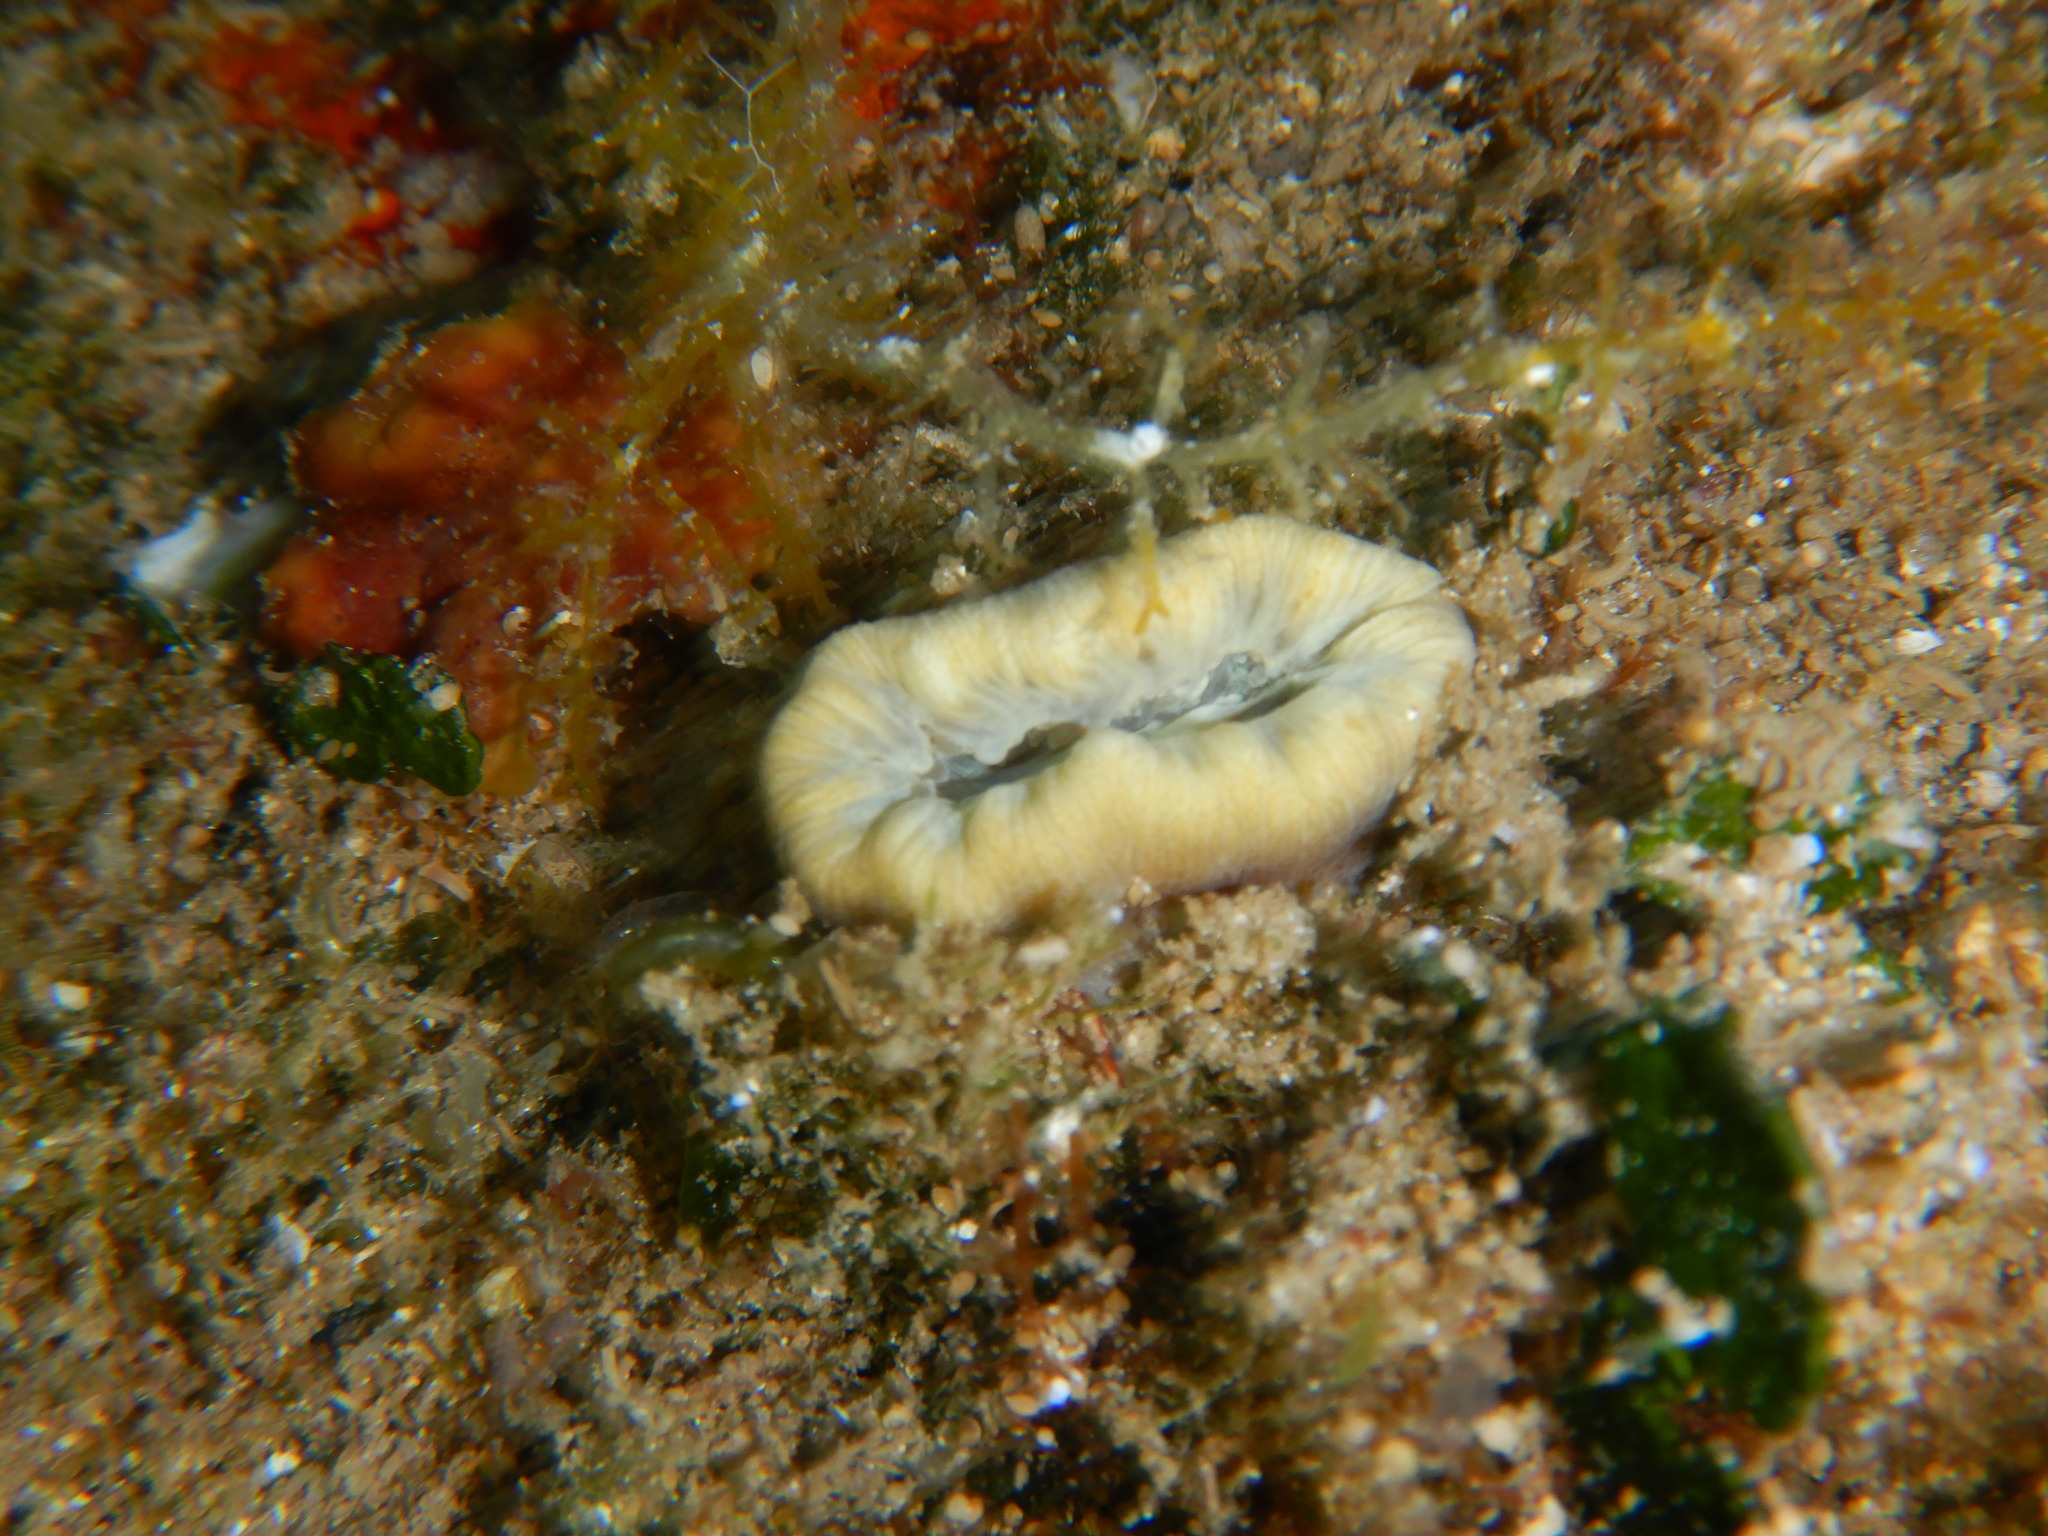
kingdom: Animalia
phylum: Cnidaria
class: Anthozoa
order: Scleractinia
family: Dendrophylliidae
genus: Balanophyllia
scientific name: Balanophyllia europaea
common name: Scarlet coral
